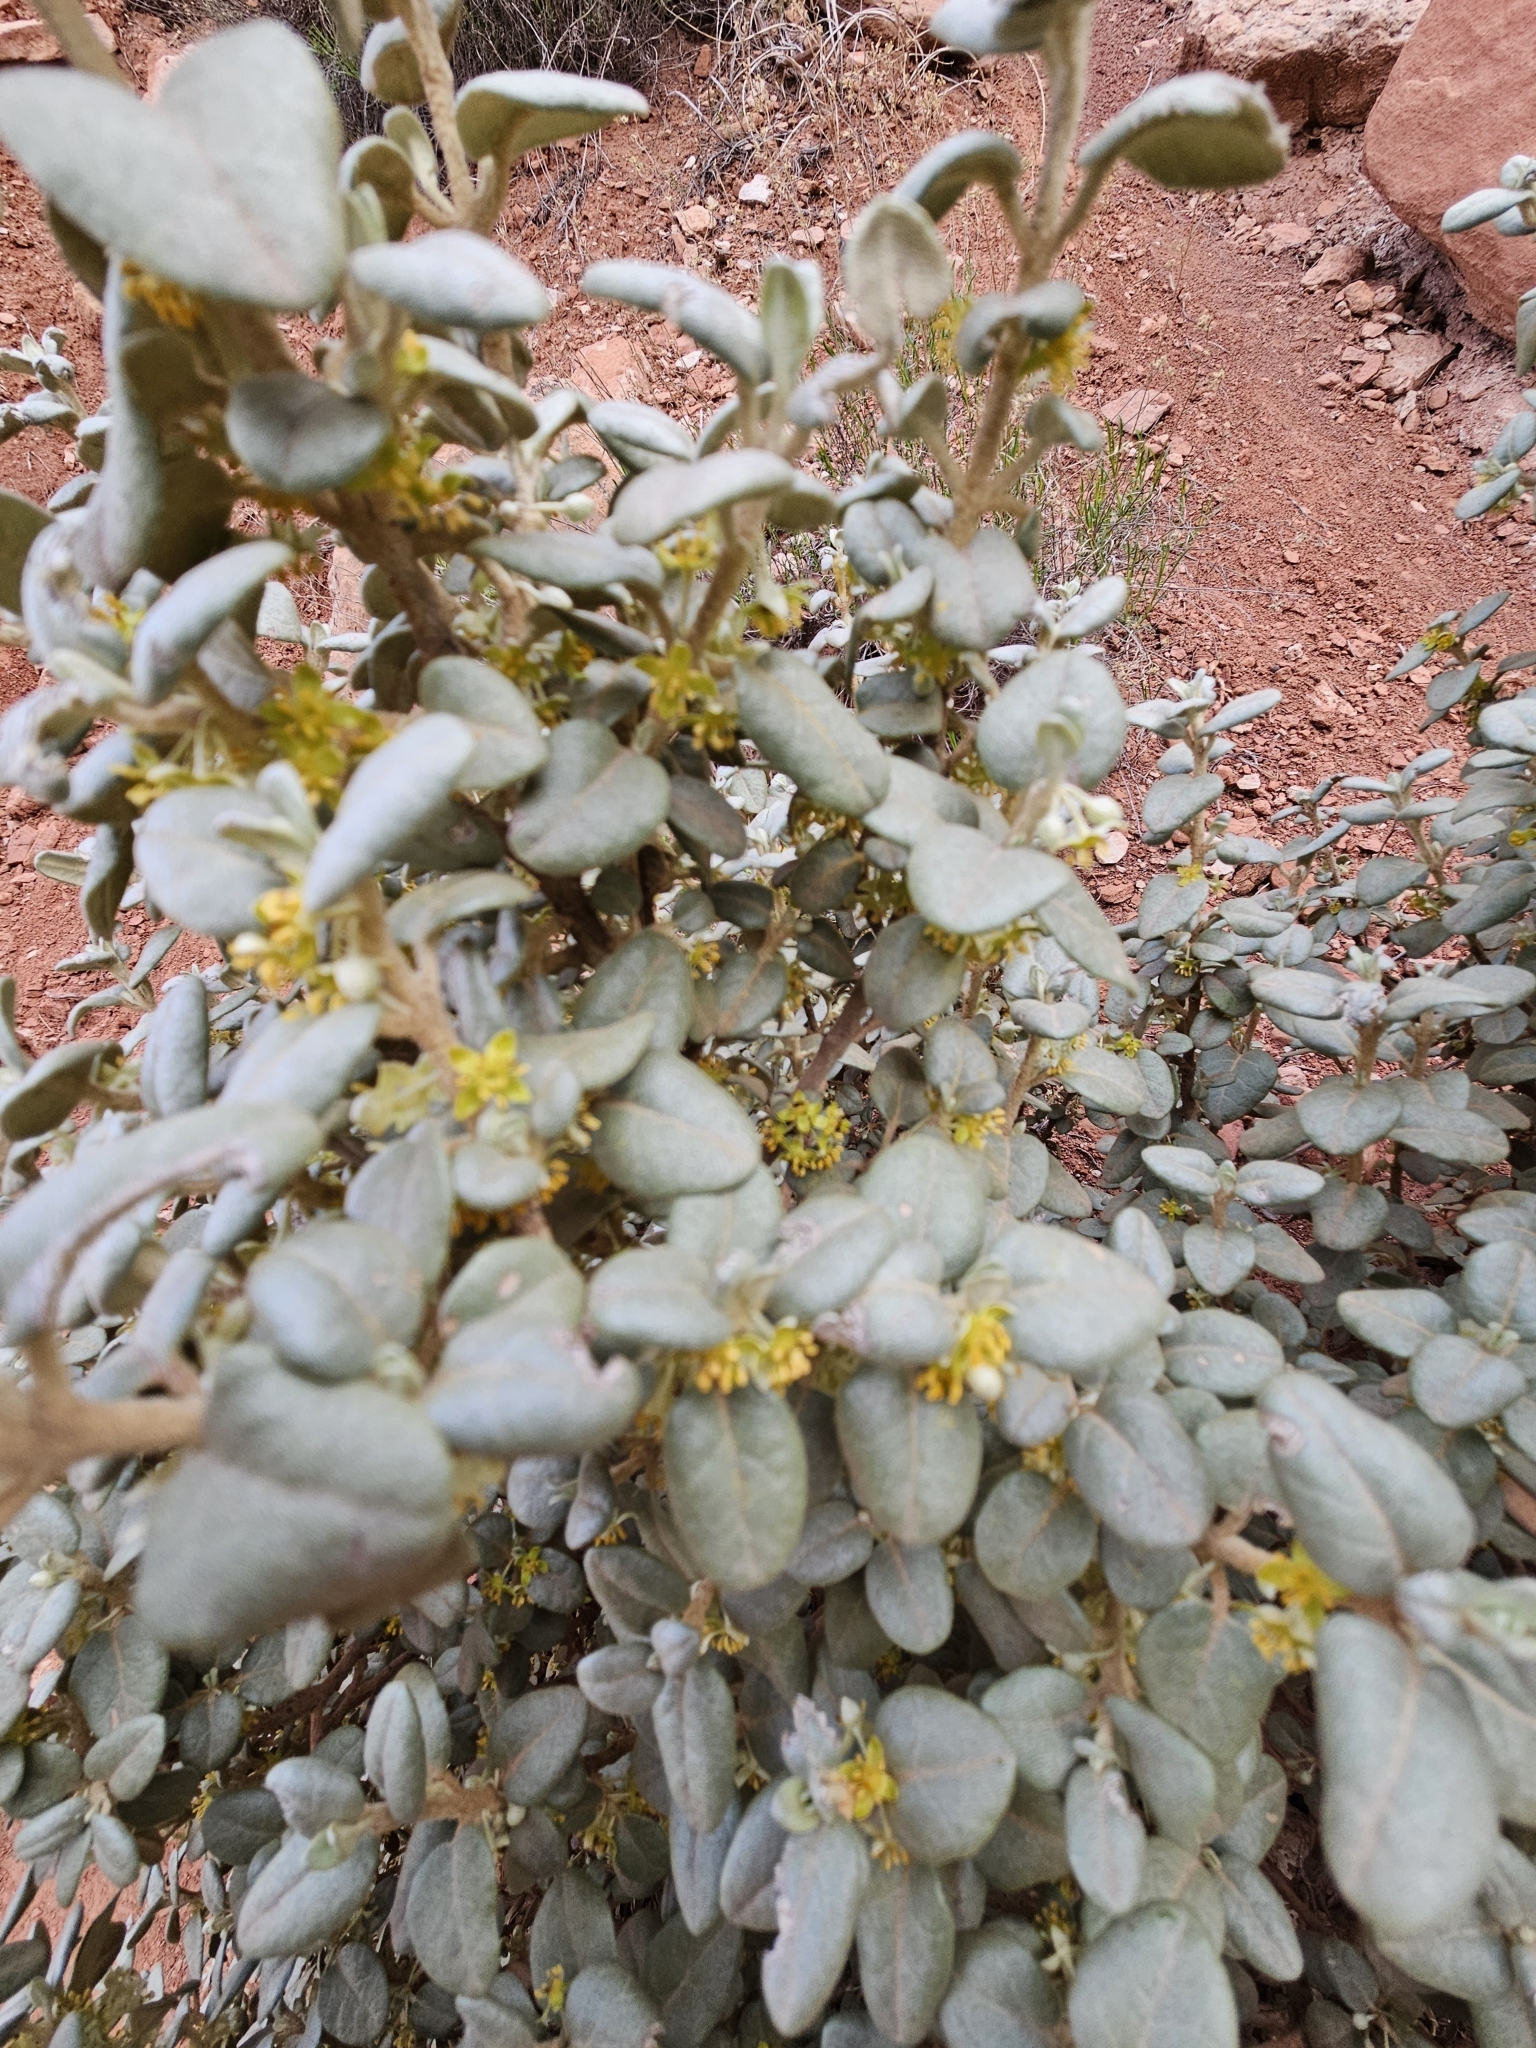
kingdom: Plantae
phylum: Tracheophyta
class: Magnoliopsida
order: Rosales
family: Elaeagnaceae
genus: Shepherdia
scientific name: Shepherdia rotundifolia
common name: Silverscale
